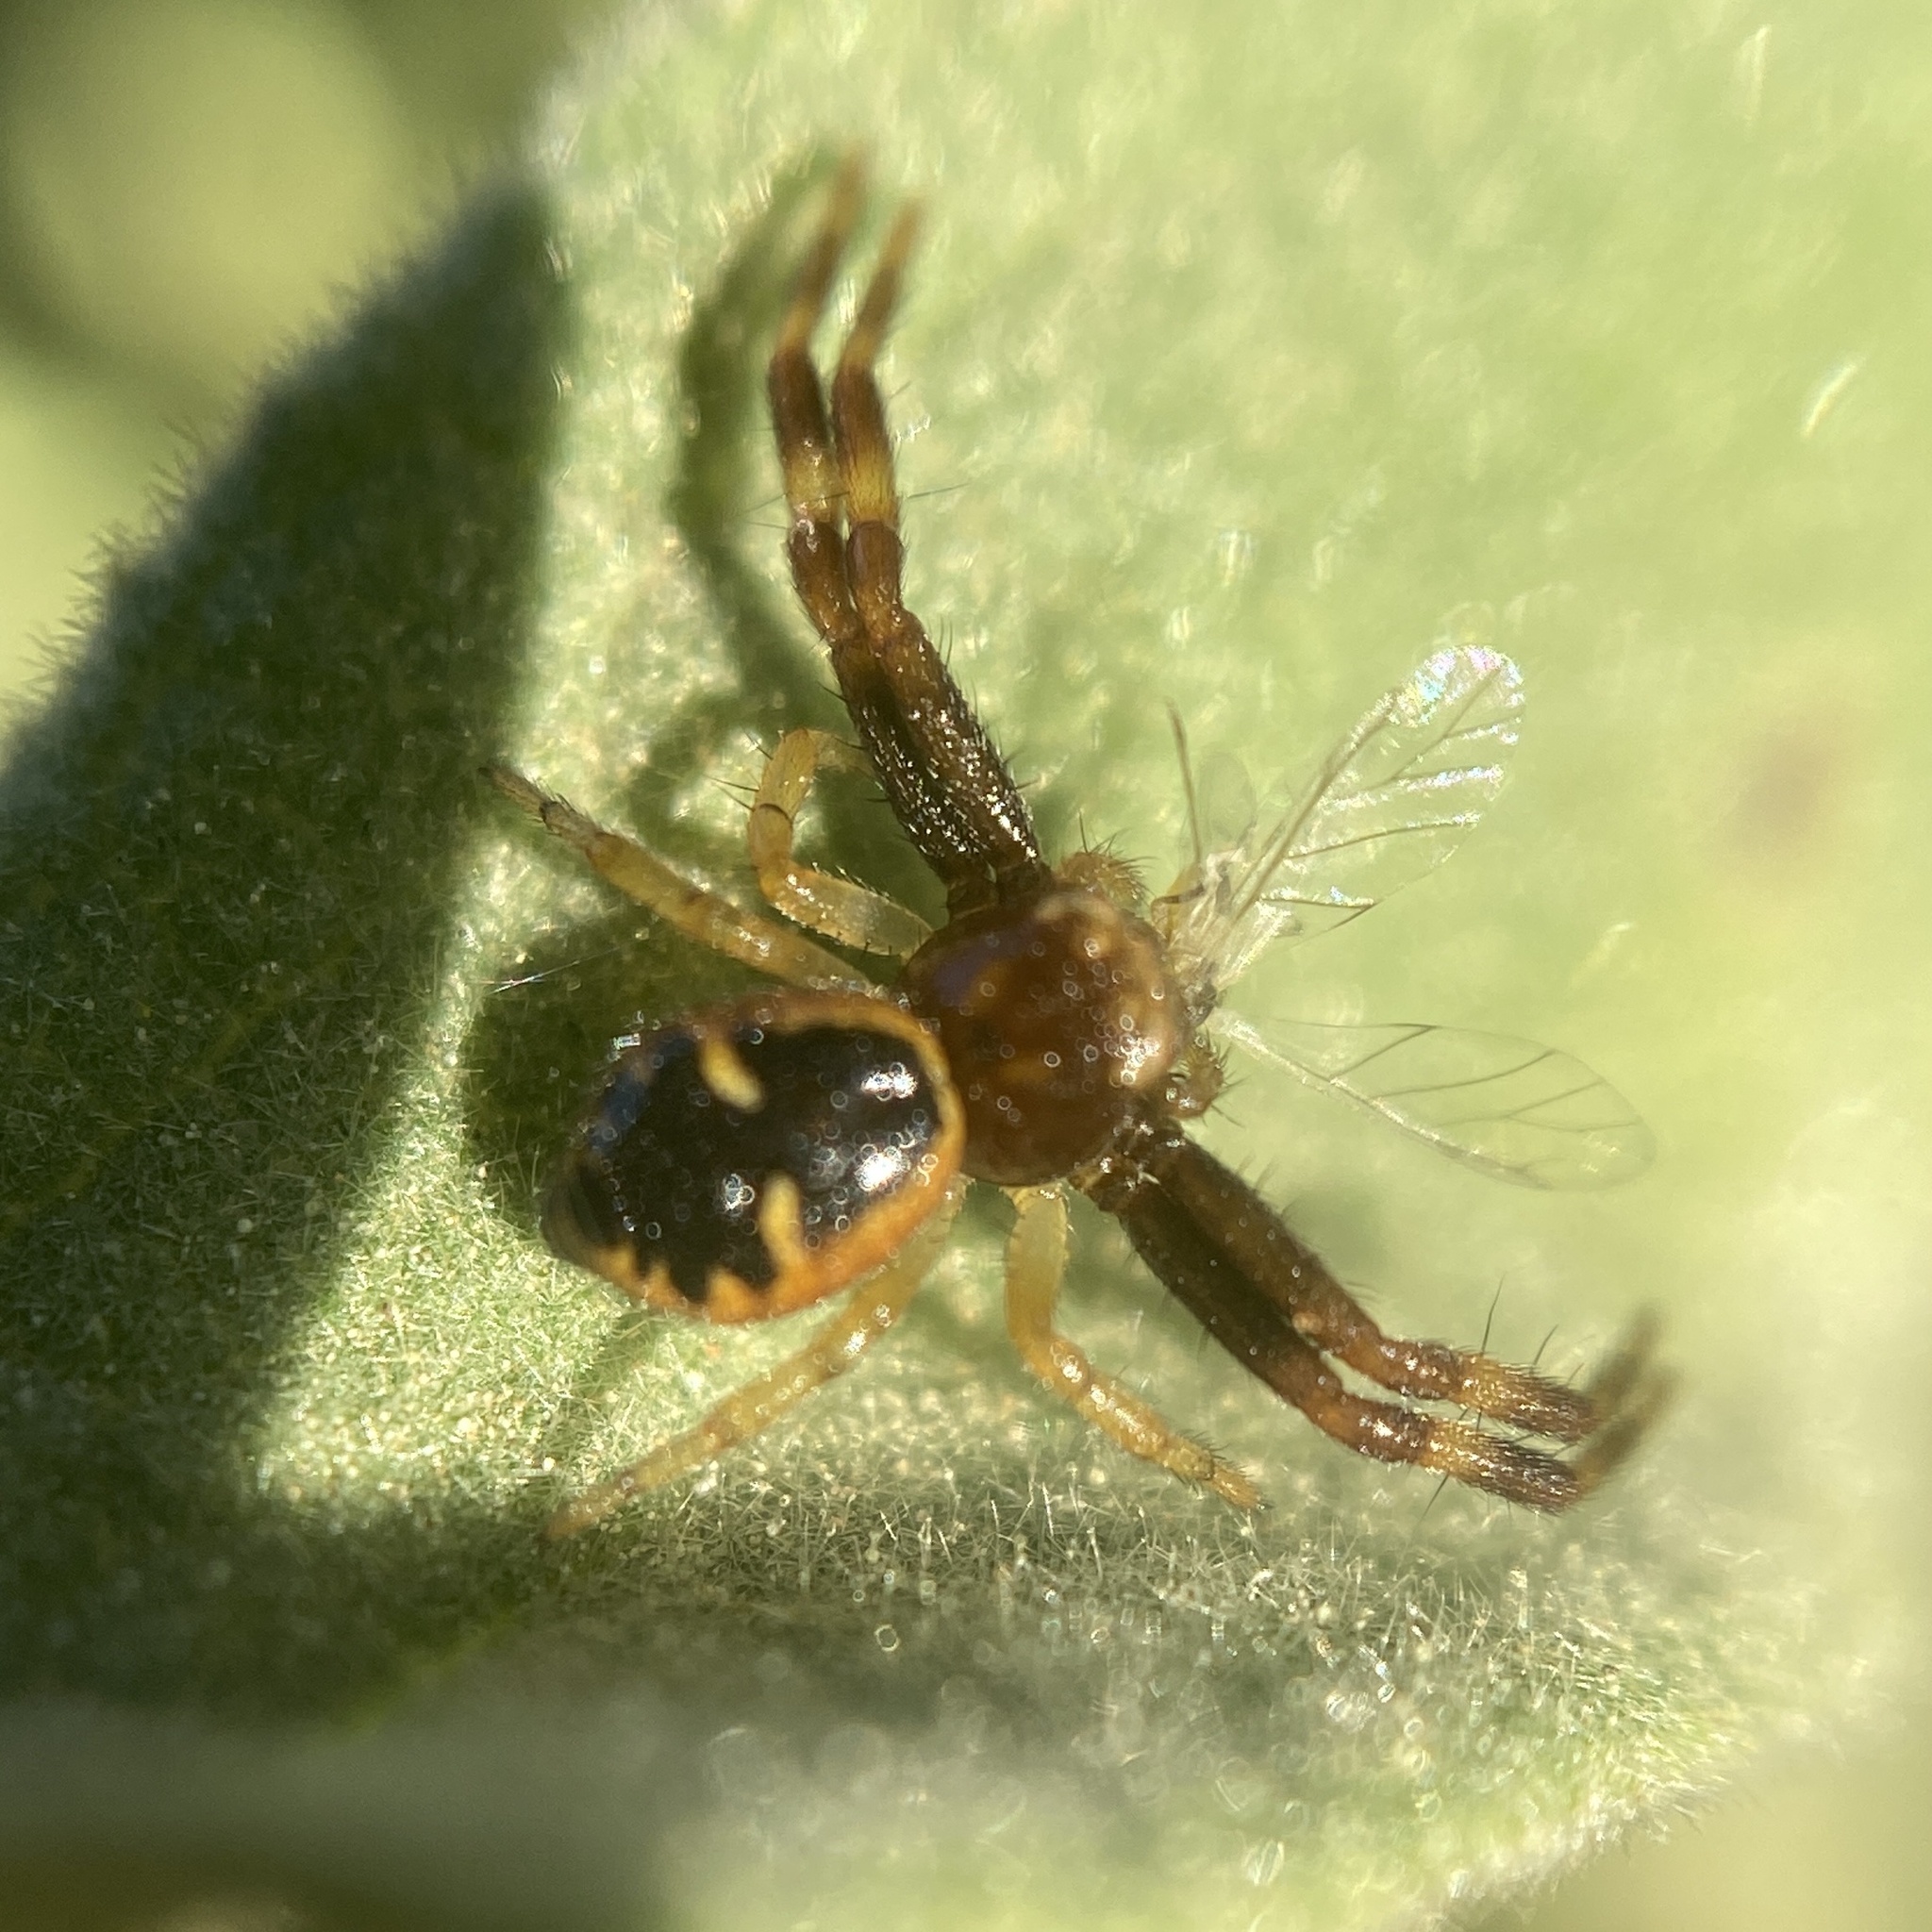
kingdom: Animalia
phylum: Arthropoda
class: Arachnida
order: Araneae
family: Thomisidae
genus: Synema
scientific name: Synema globosum
